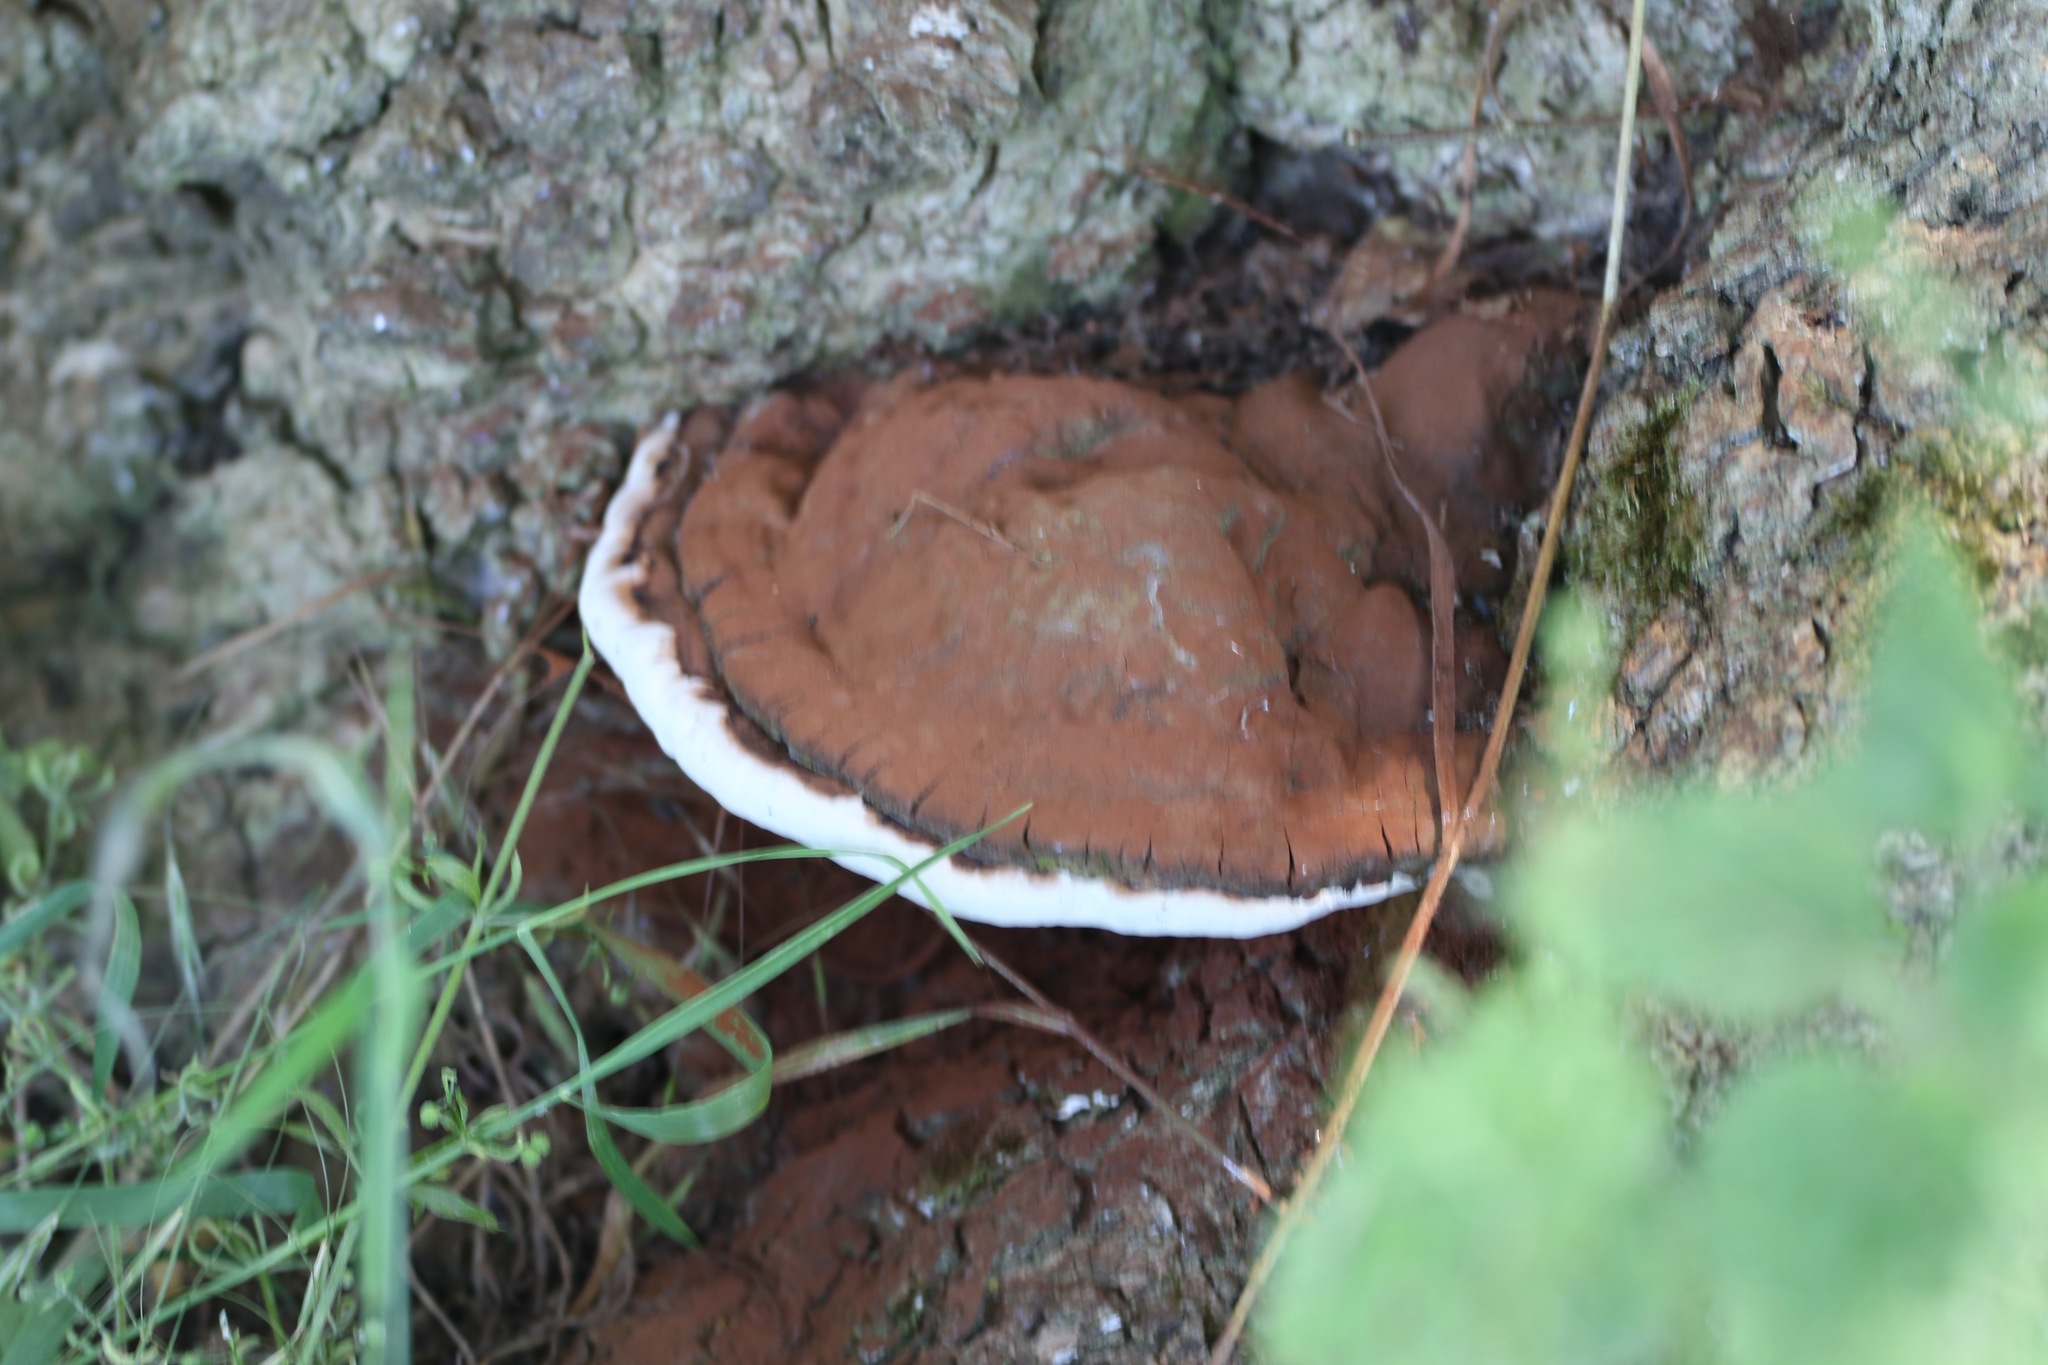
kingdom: Fungi
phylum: Basidiomycota
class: Agaricomycetes
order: Polyporales
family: Polyporaceae
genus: Ganoderma
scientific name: Ganoderma applanatum
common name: Artist's bracket
